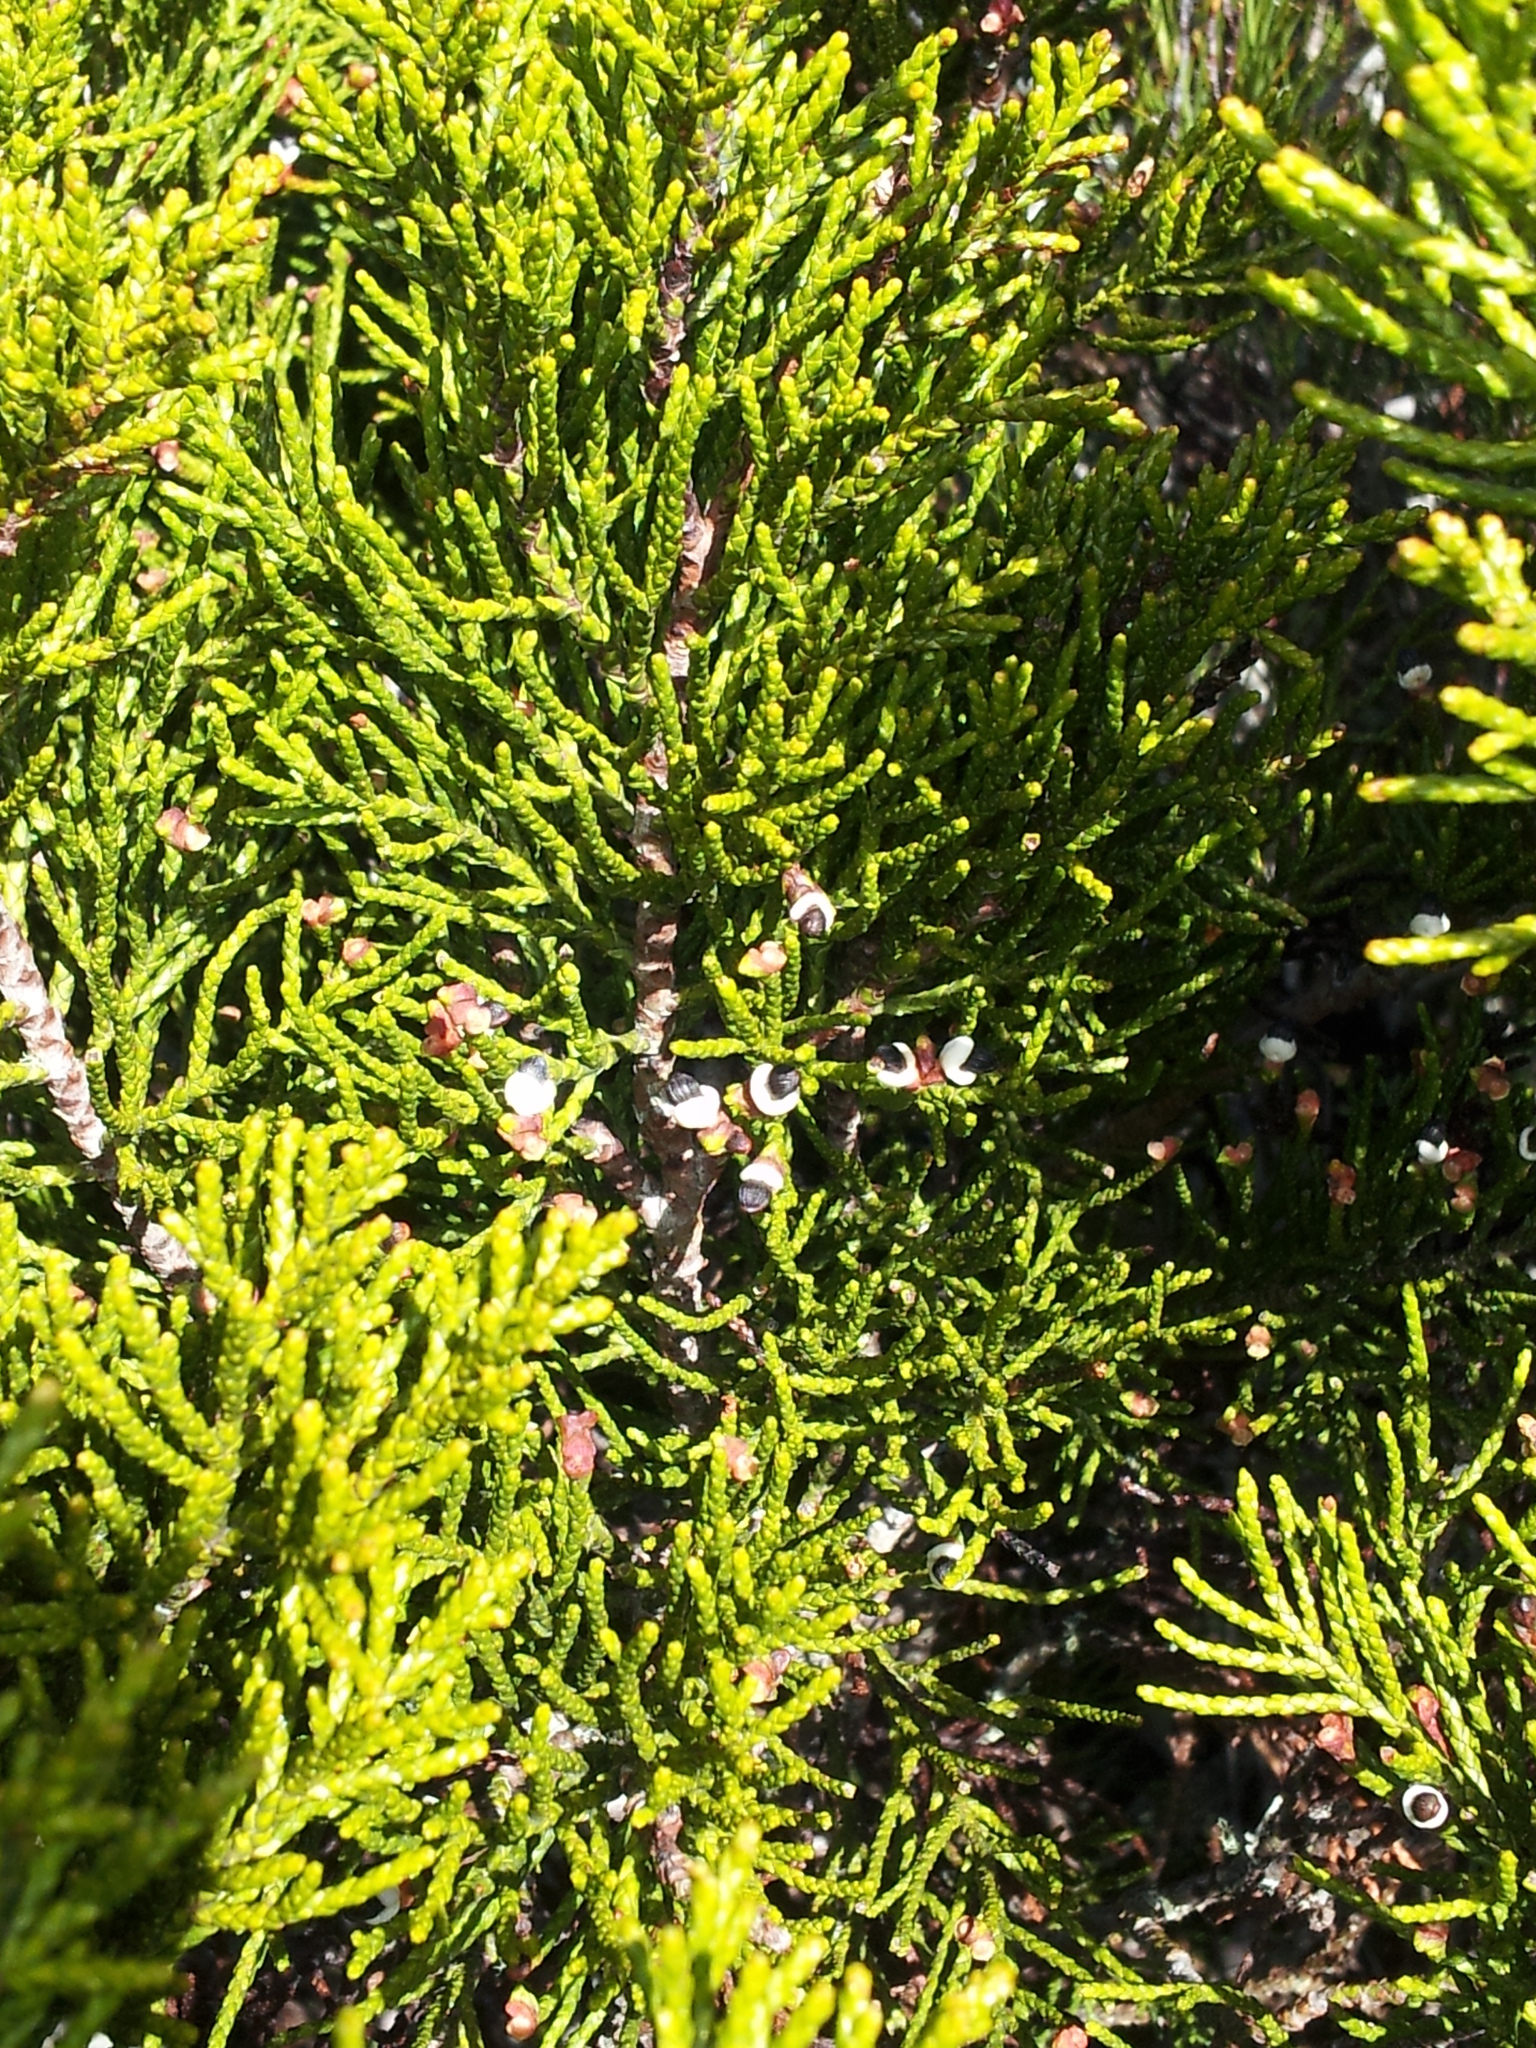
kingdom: Plantae
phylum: Tracheophyta
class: Pinopsida
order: Pinales
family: Podocarpaceae
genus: Halocarpus
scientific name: Halocarpus bidwillii
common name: Bog pine
